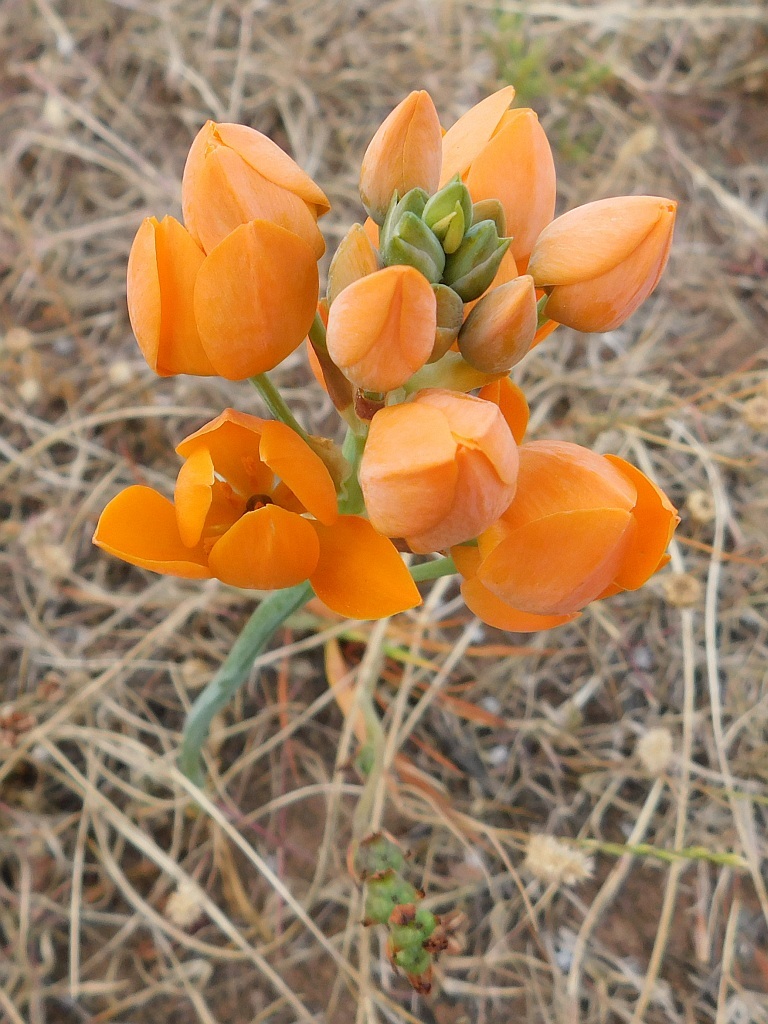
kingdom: Plantae
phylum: Tracheophyta
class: Liliopsida
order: Asparagales
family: Asparagaceae
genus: Ornithogalum
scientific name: Ornithogalum dubium
